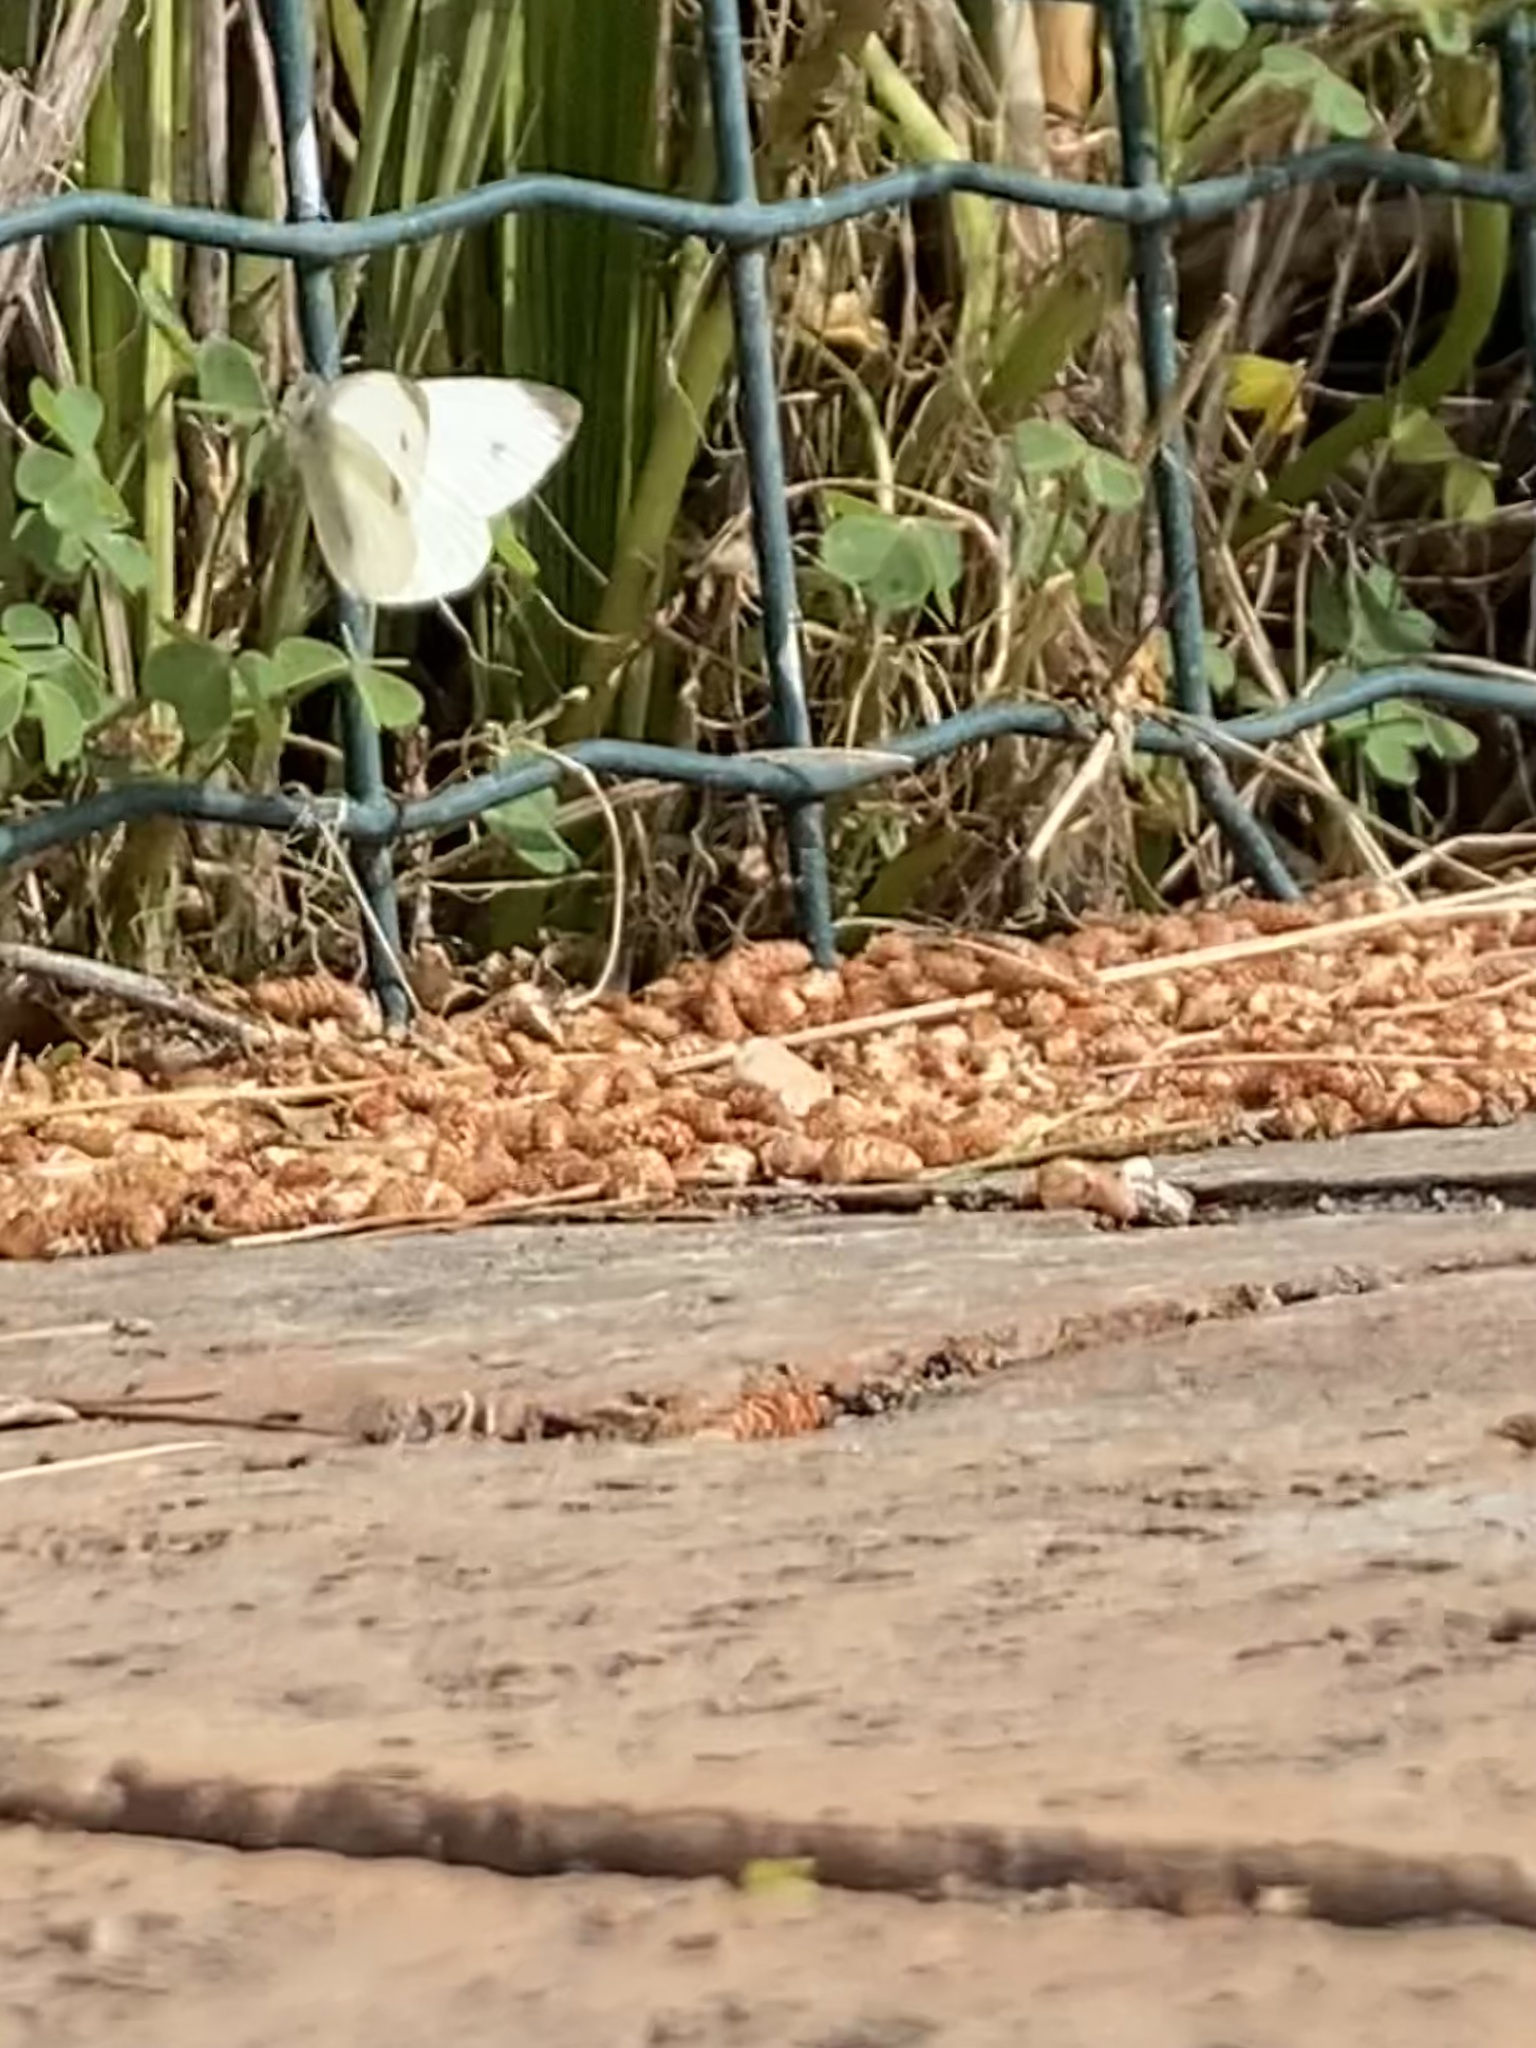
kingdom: Animalia
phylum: Arthropoda
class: Insecta
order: Lepidoptera
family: Pieridae
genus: Pieris
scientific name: Pieris rapae
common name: Small white
